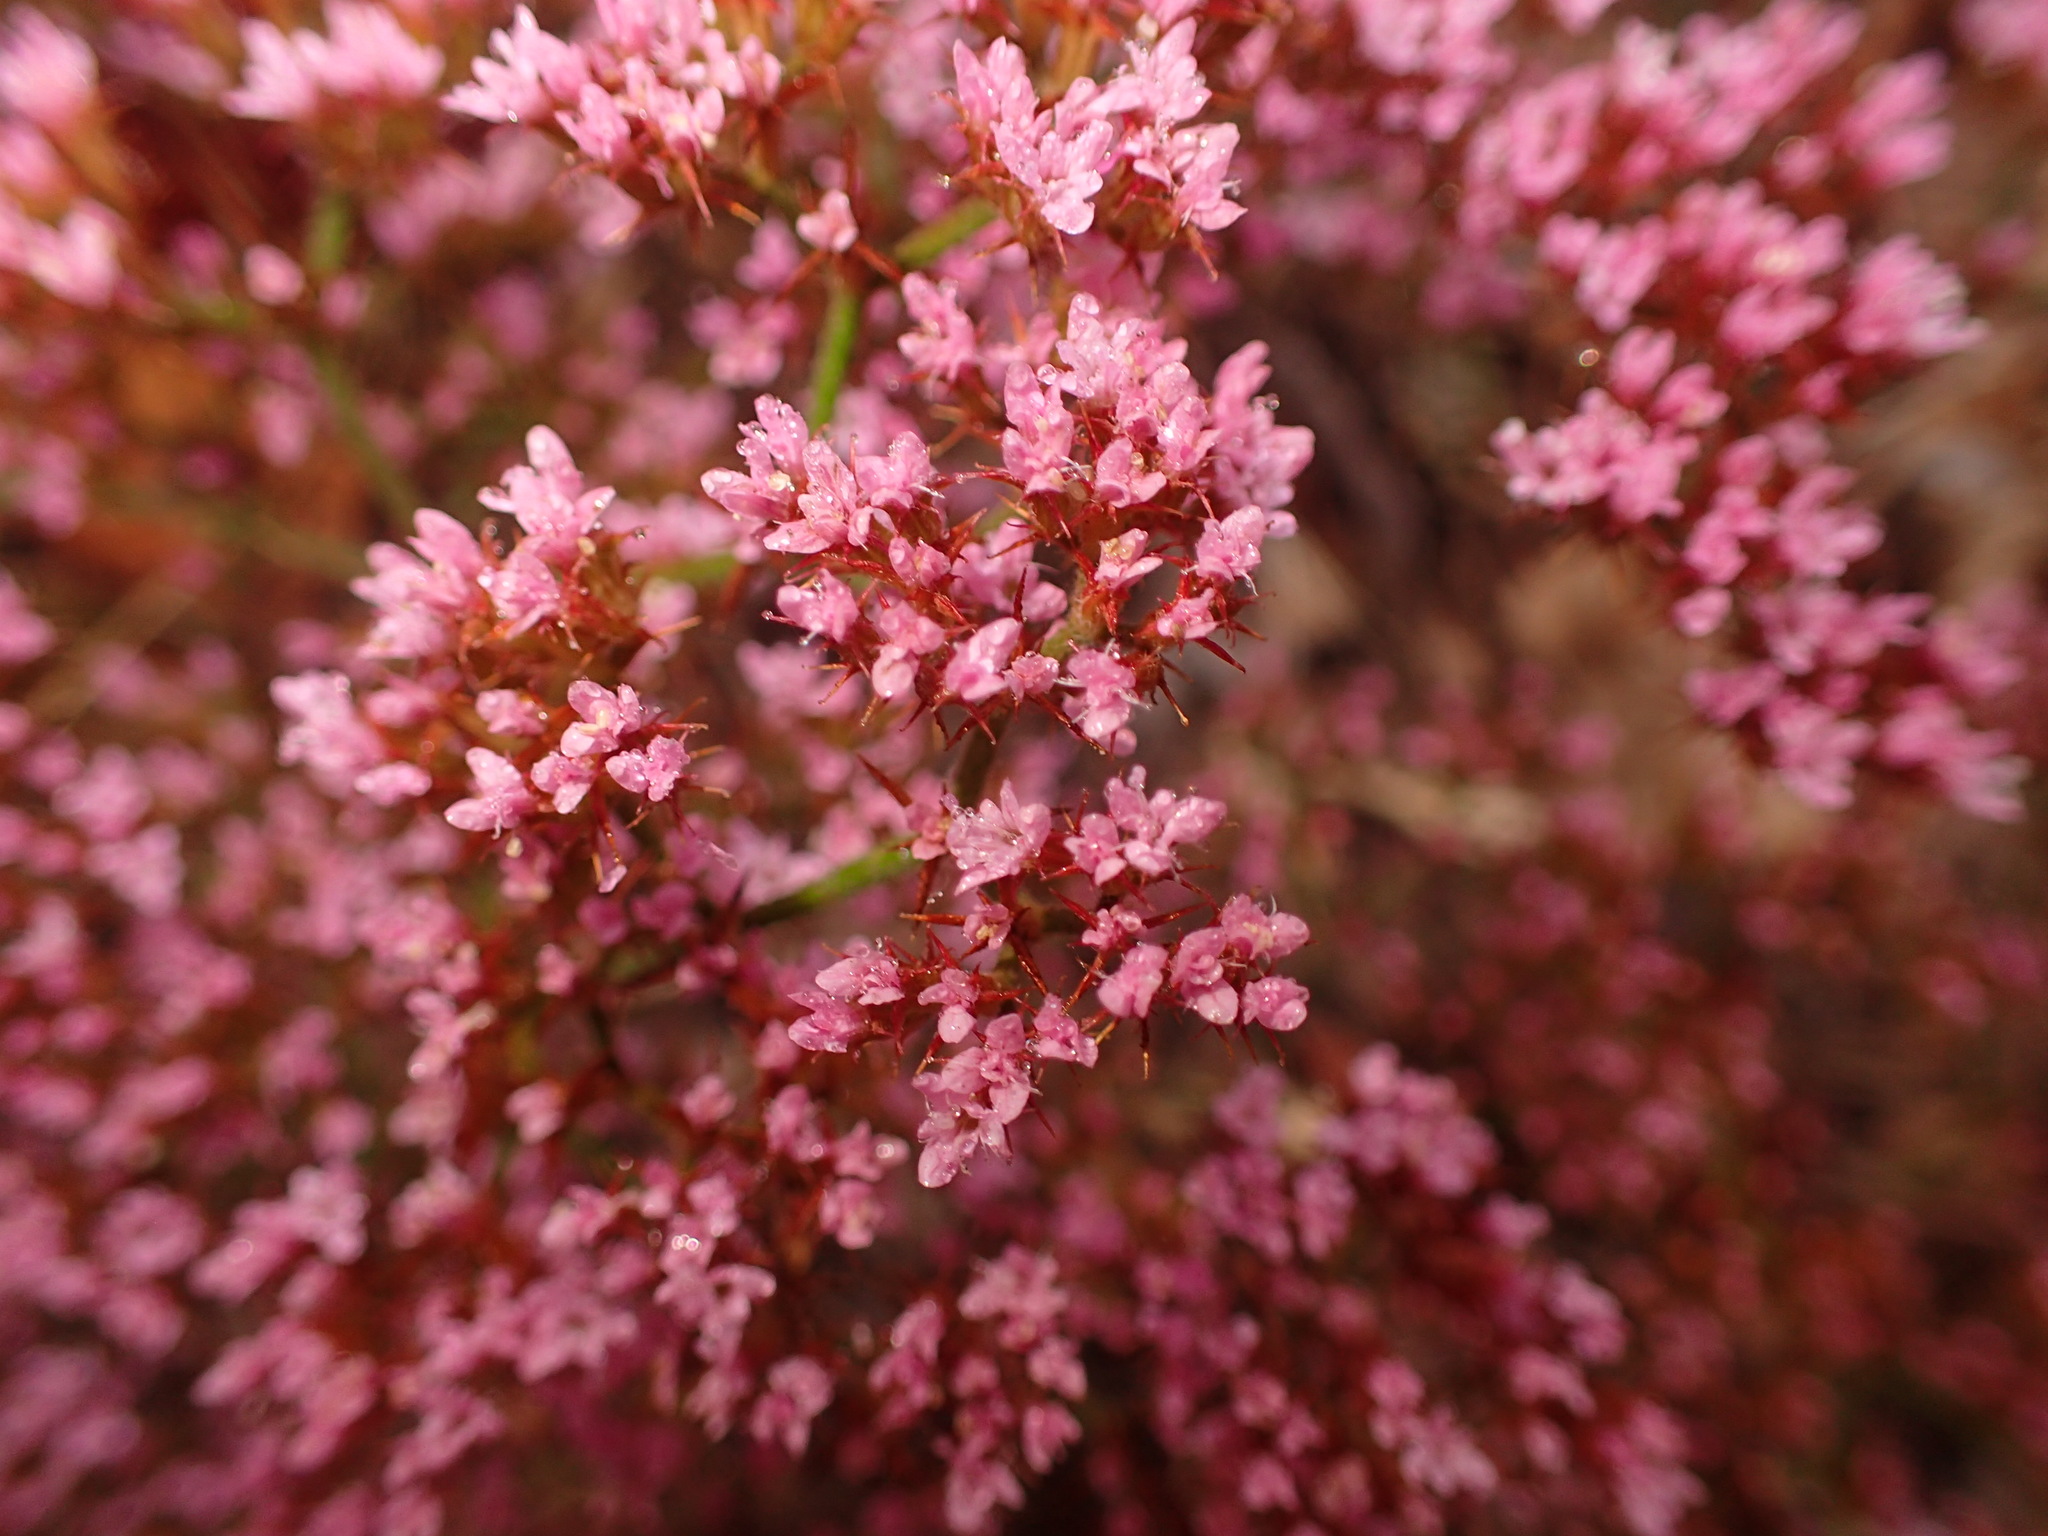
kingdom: Plantae
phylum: Tracheophyta
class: Magnoliopsida
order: Caryophyllales
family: Polygonaceae
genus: Chorizanthe
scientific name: Chorizanthe staticoides
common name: Turkish rugging
